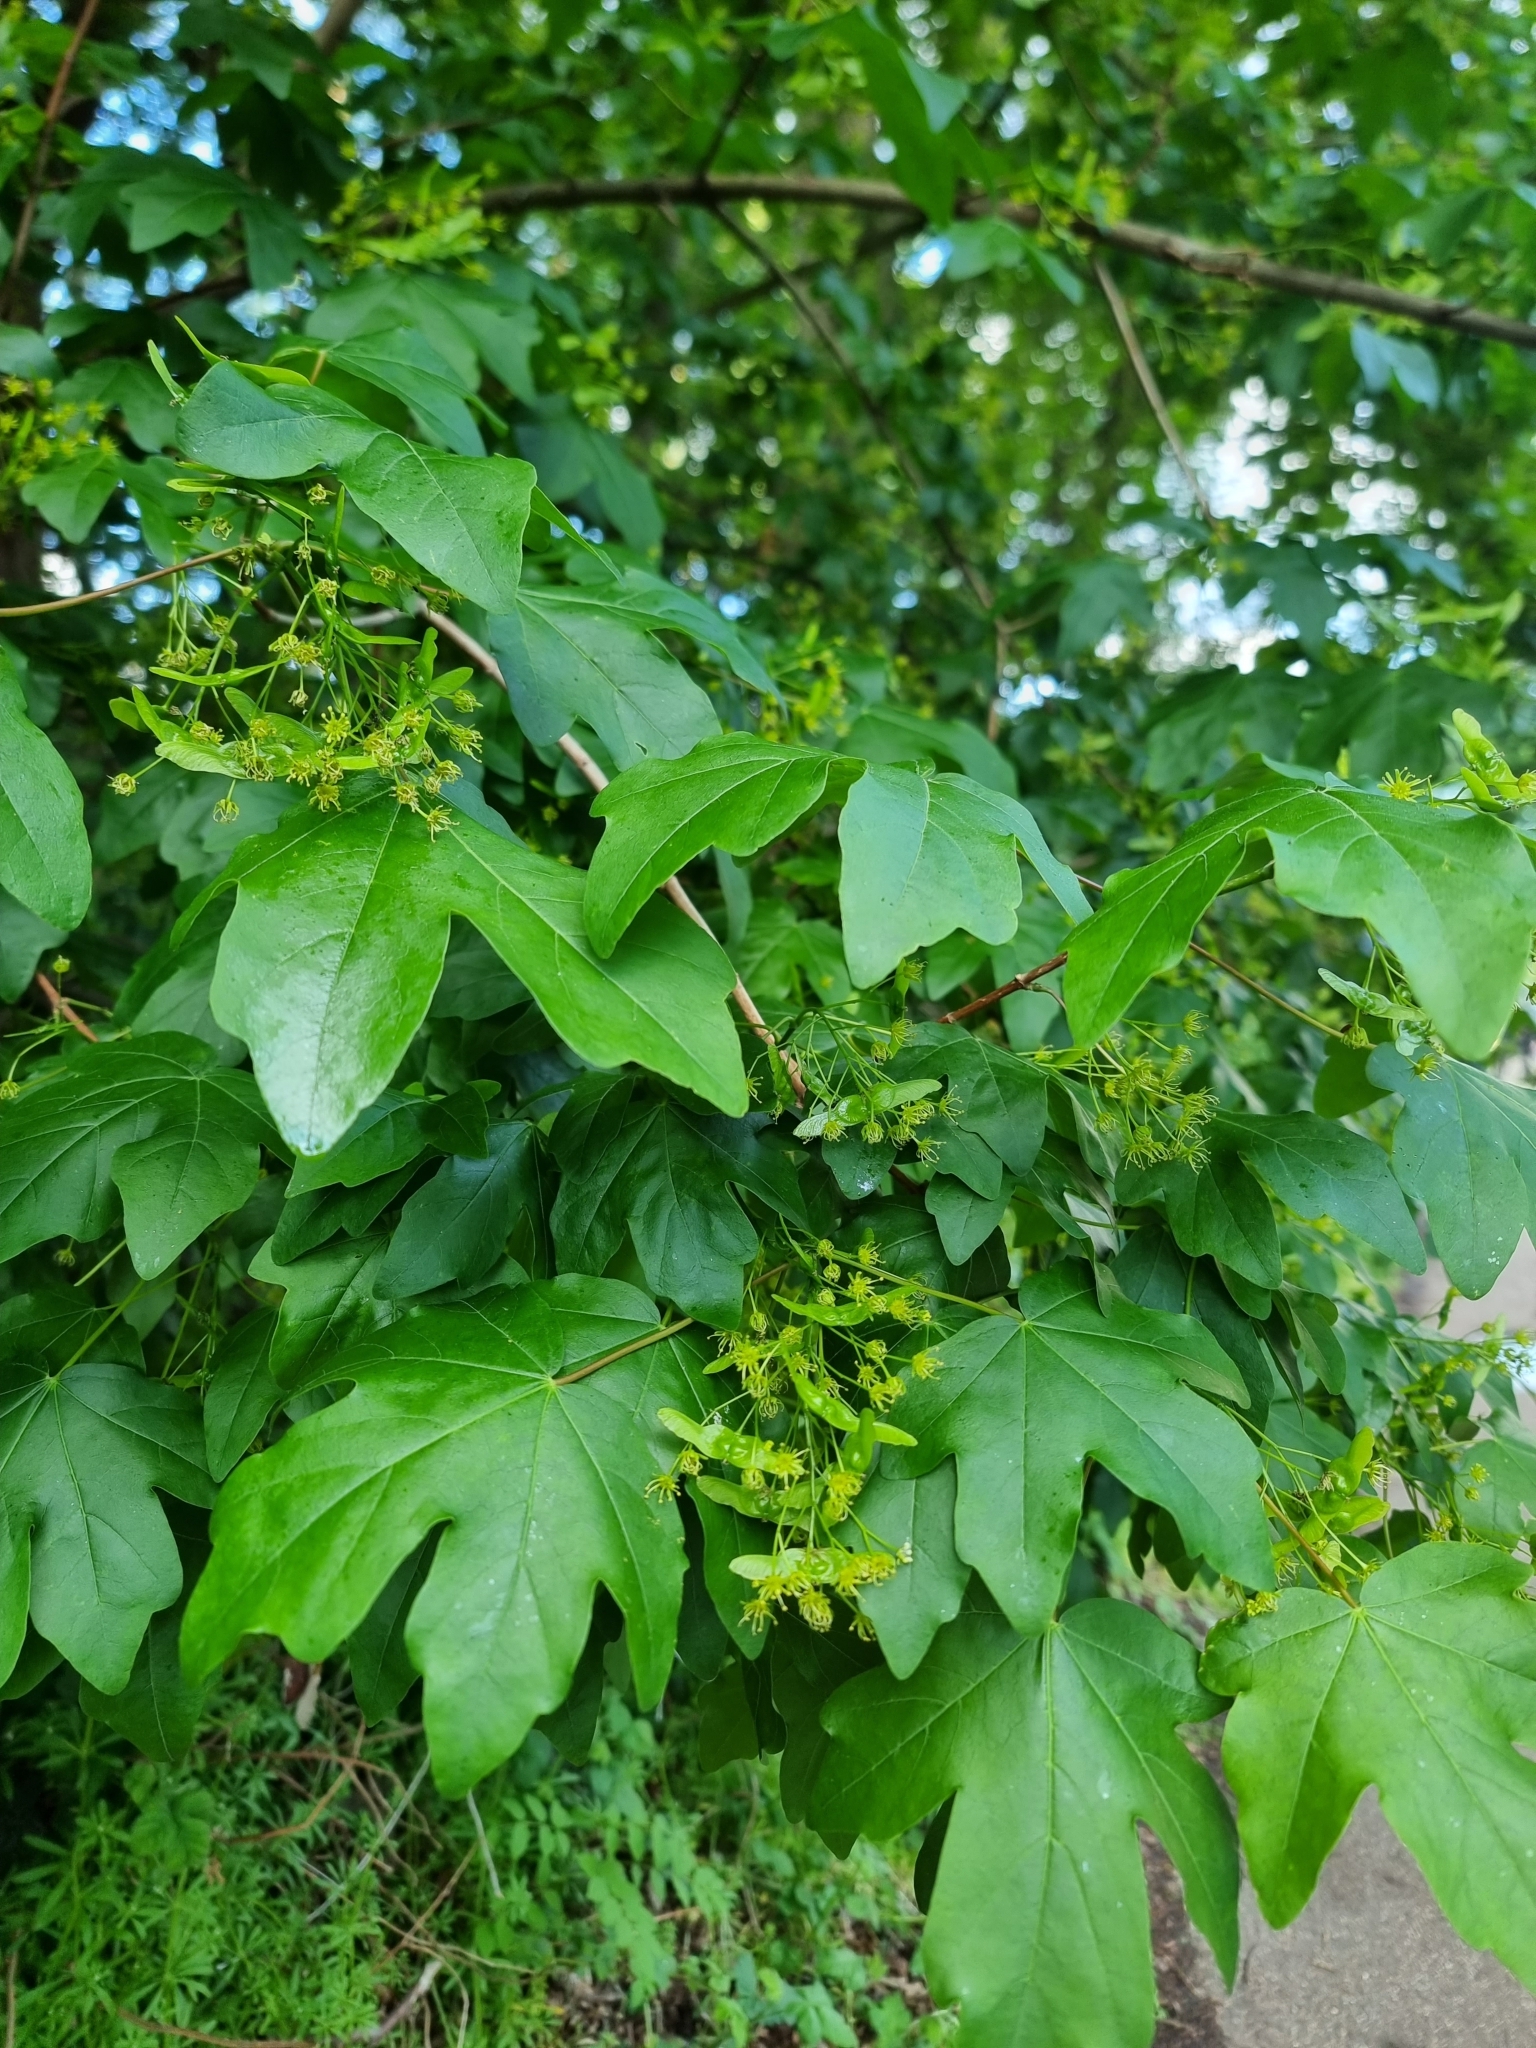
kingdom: Plantae
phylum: Tracheophyta
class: Magnoliopsida
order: Sapindales
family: Sapindaceae
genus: Acer
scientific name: Acer campestre
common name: Field maple
